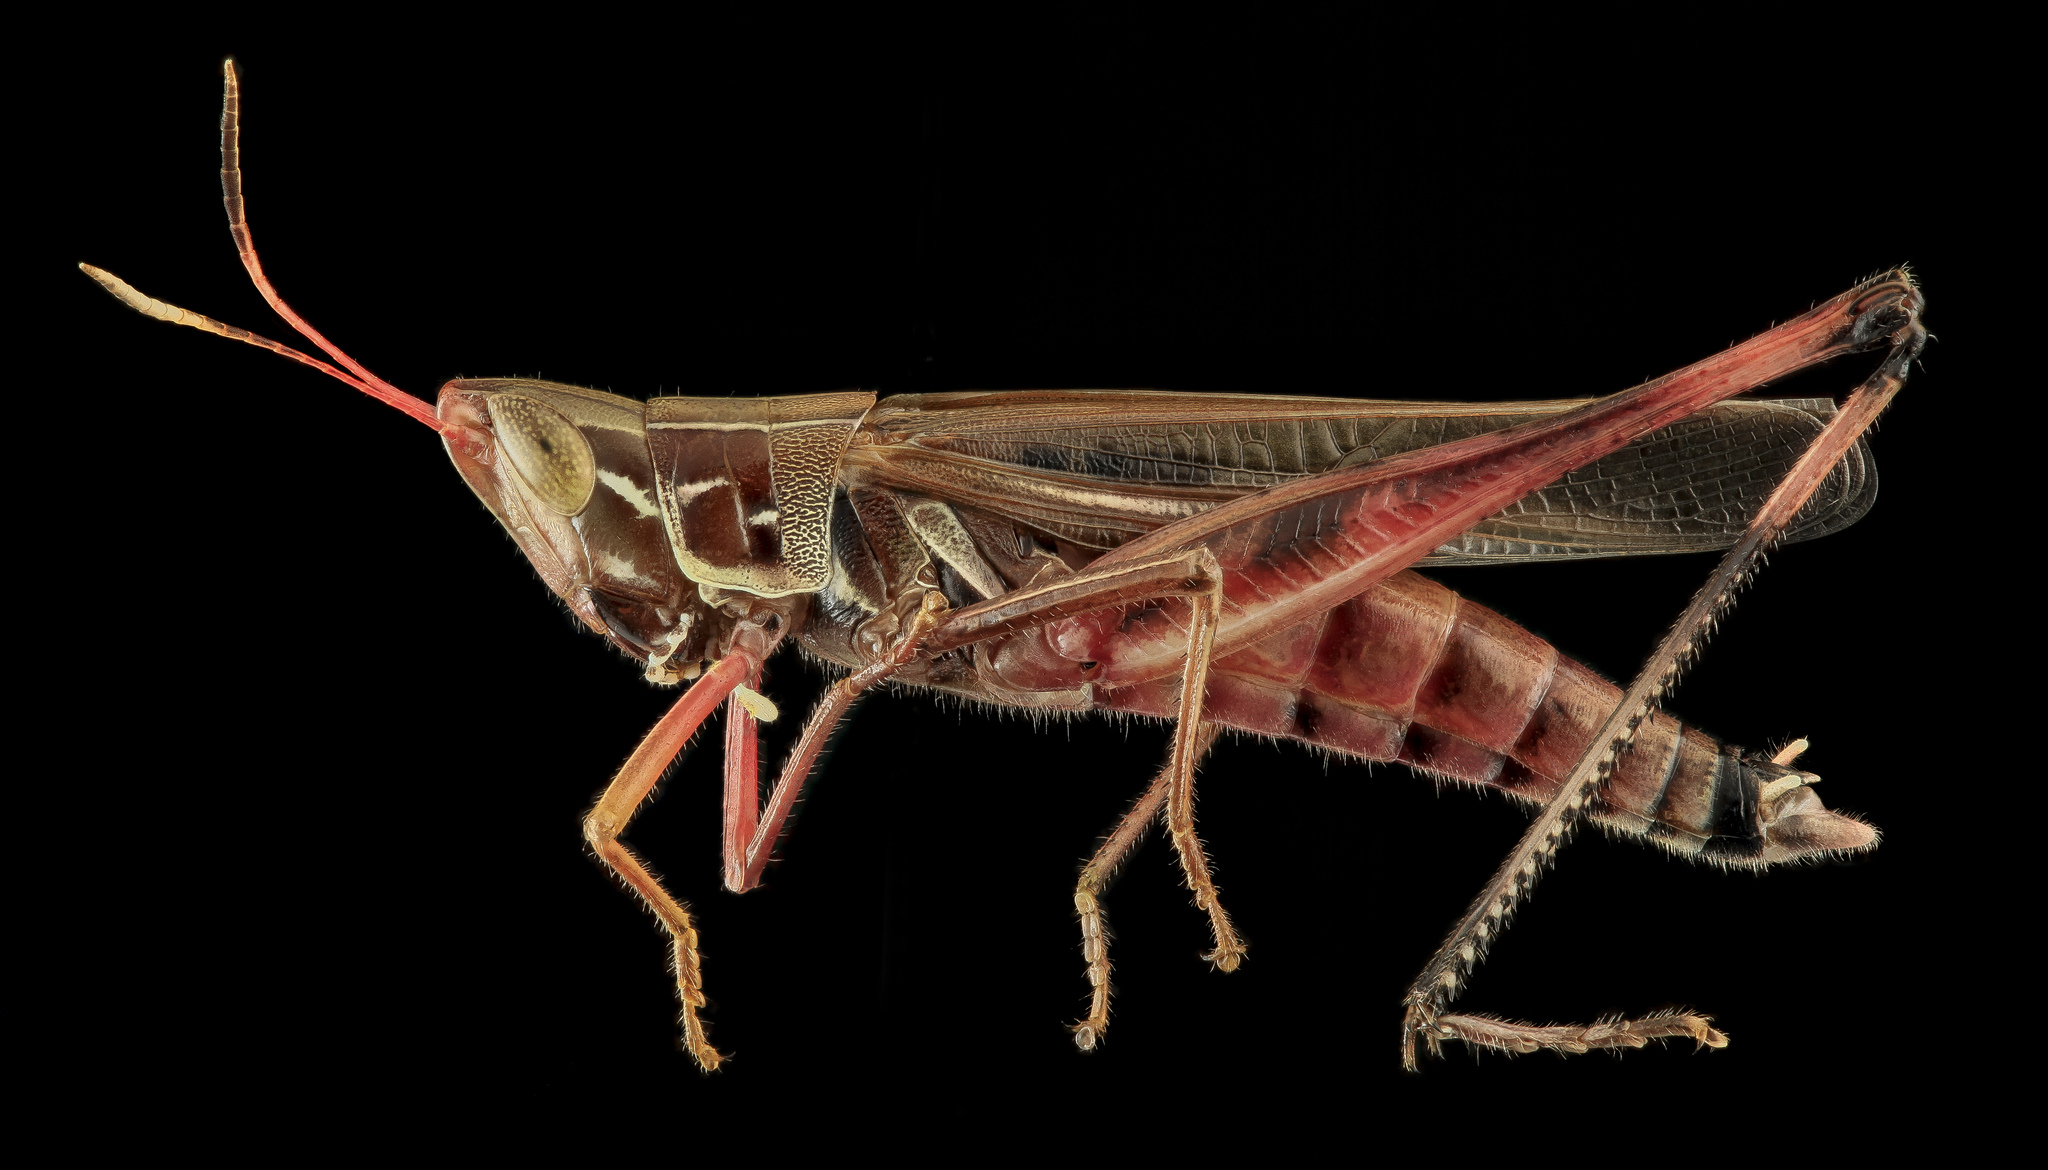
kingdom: Animalia
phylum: Arthropoda
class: Insecta
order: Orthoptera
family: Acrididae
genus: Syrbula
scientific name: Syrbula admirabilis
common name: Handsome grasshopper
